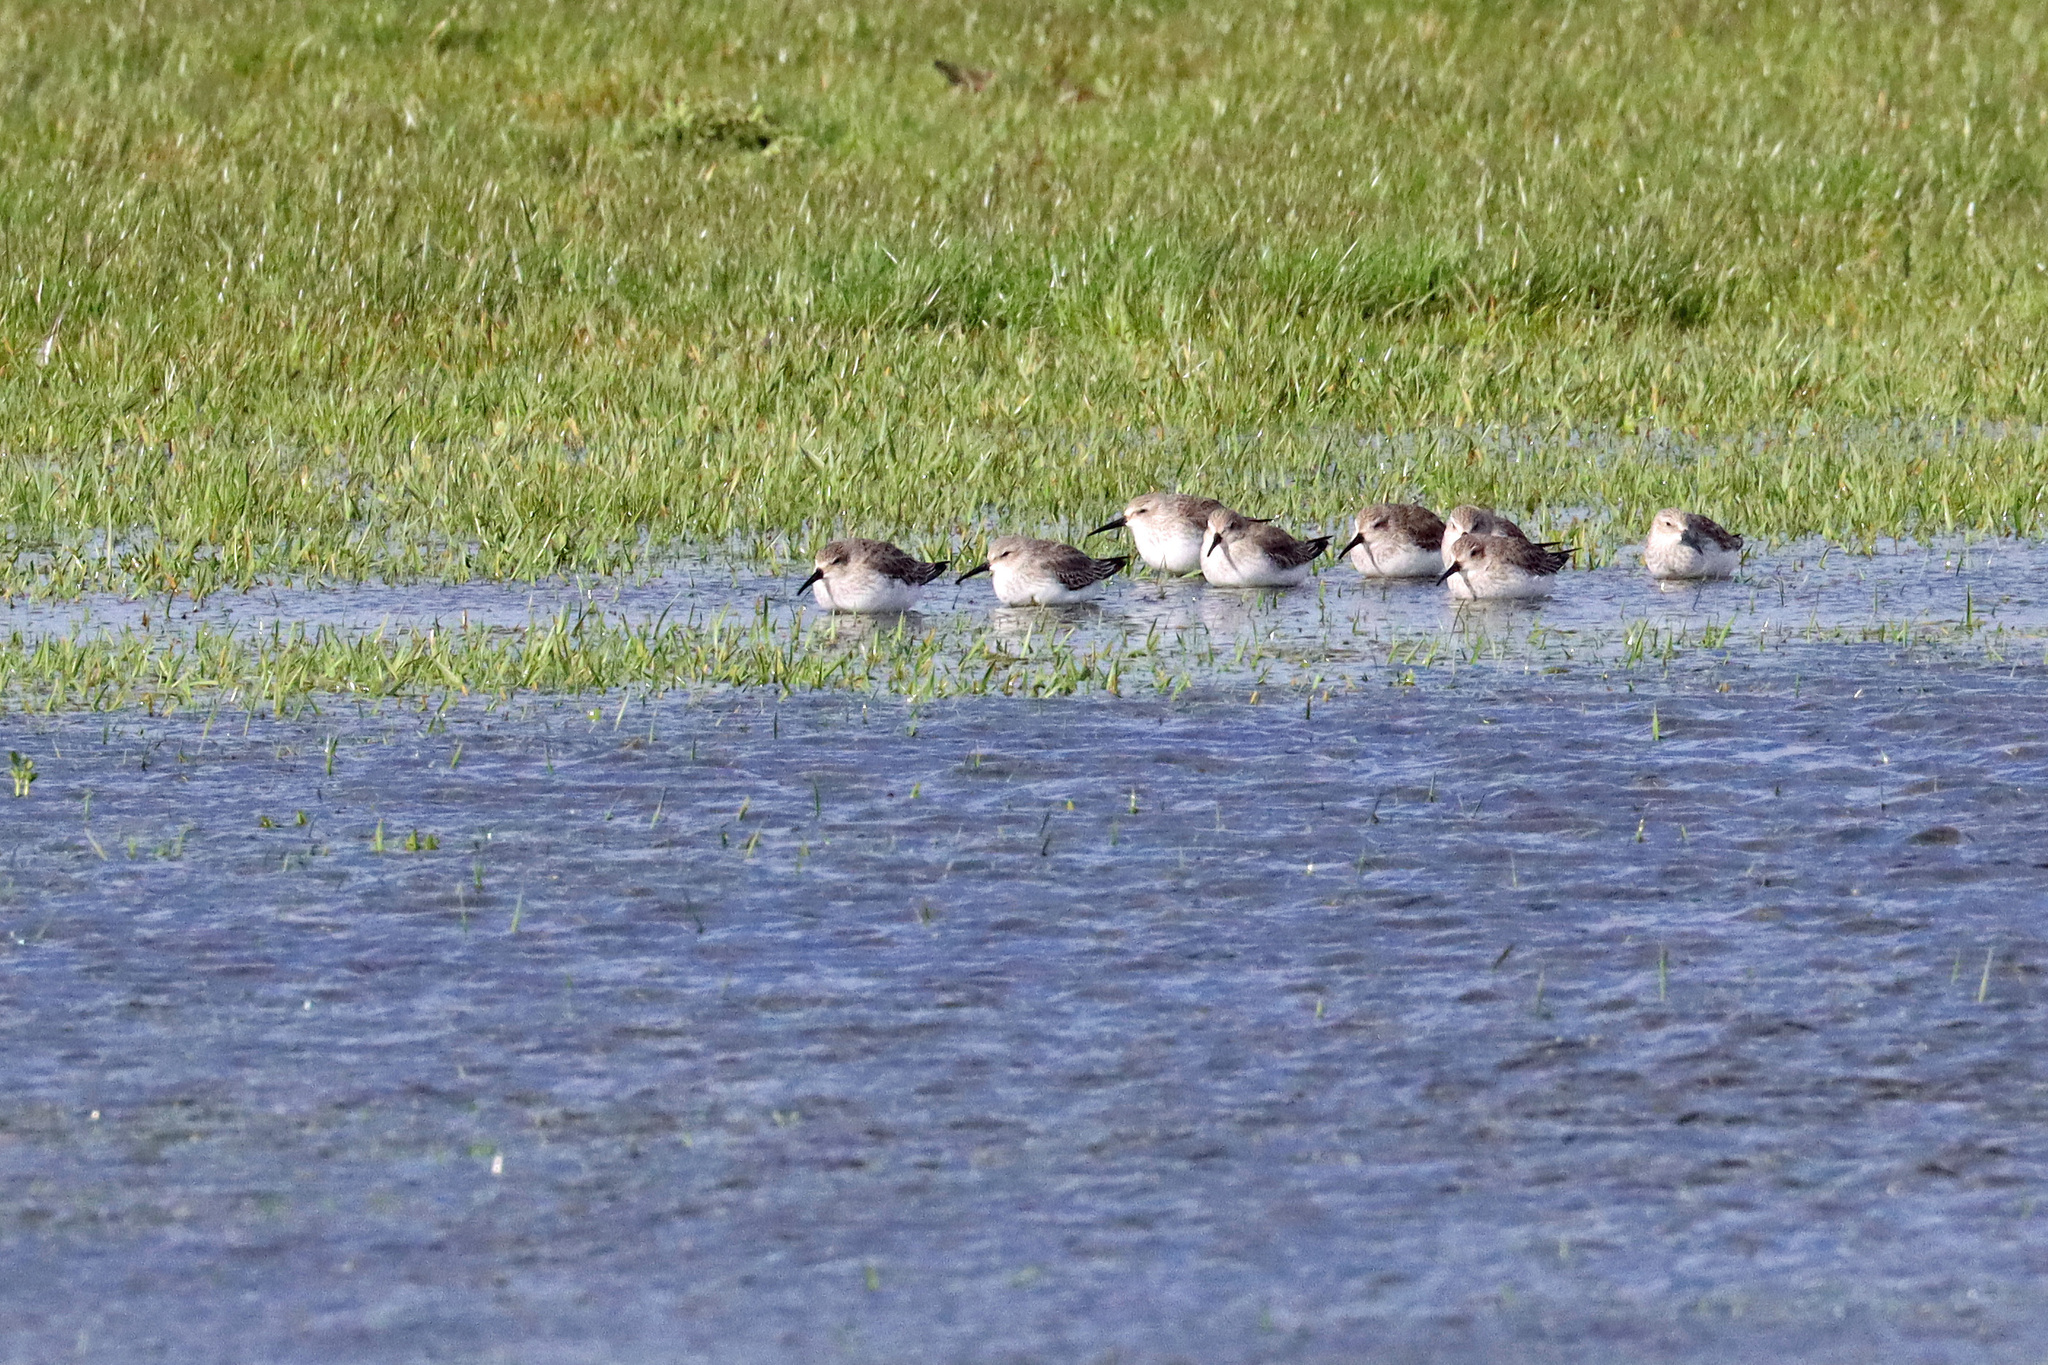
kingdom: Animalia
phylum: Chordata
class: Aves
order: Charadriiformes
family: Scolopacidae
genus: Calidris
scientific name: Calidris alpina
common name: Dunlin
